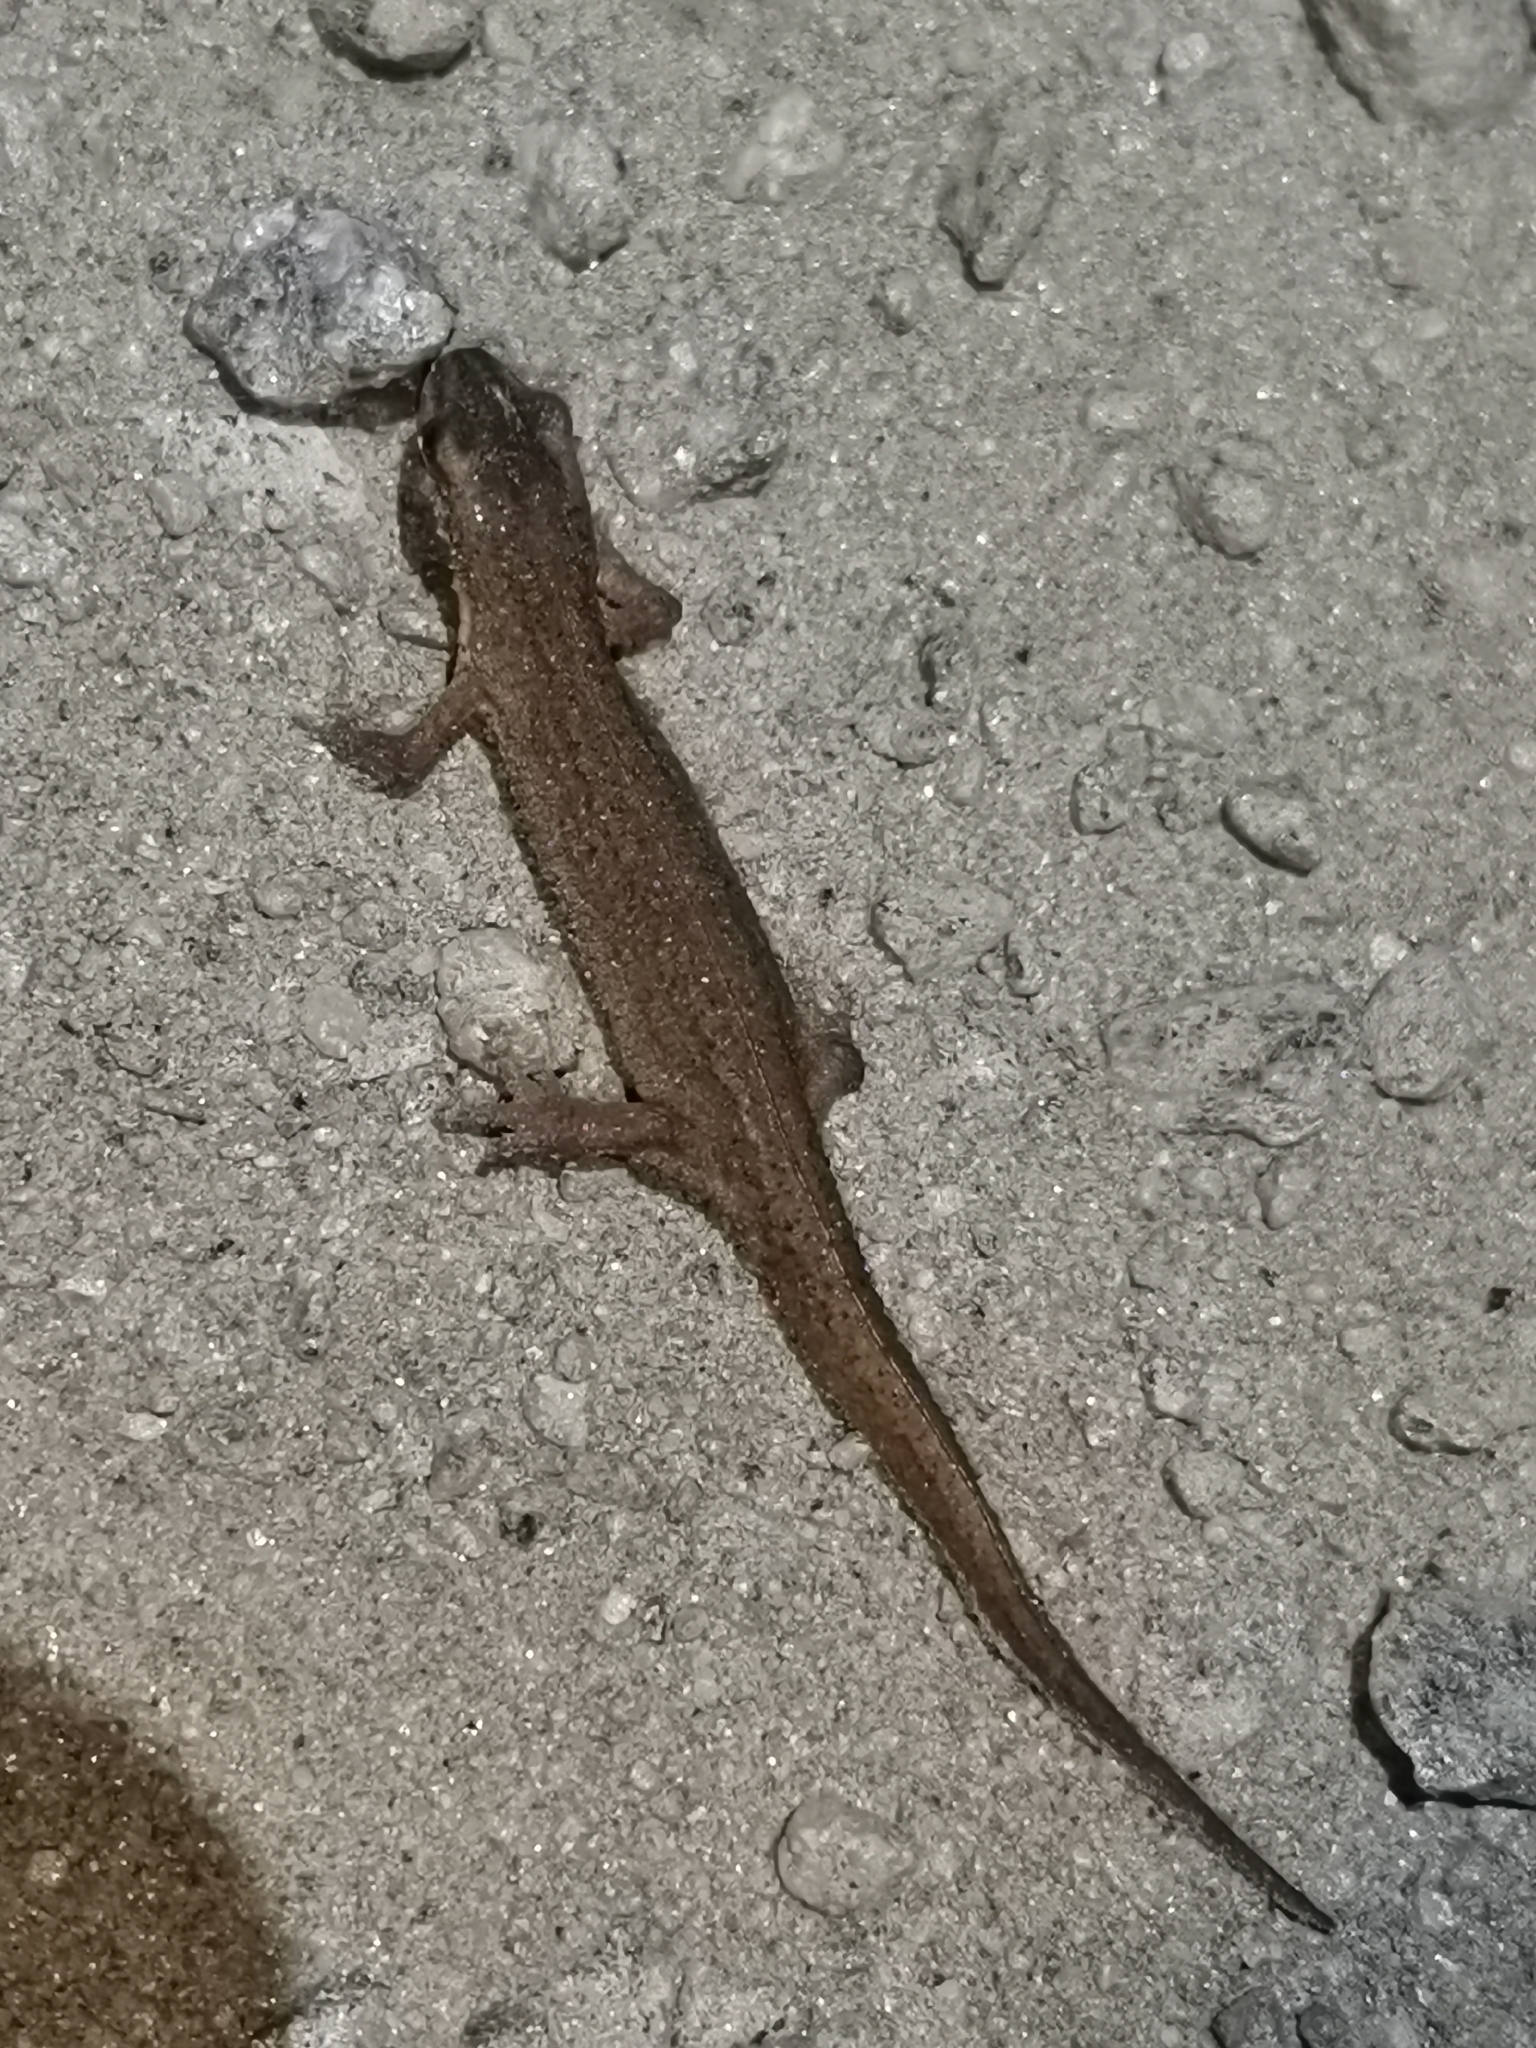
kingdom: Animalia
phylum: Chordata
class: Amphibia
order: Caudata
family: Salamandridae
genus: Lissotriton
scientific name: Lissotriton vulgaris
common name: Smooth newt
